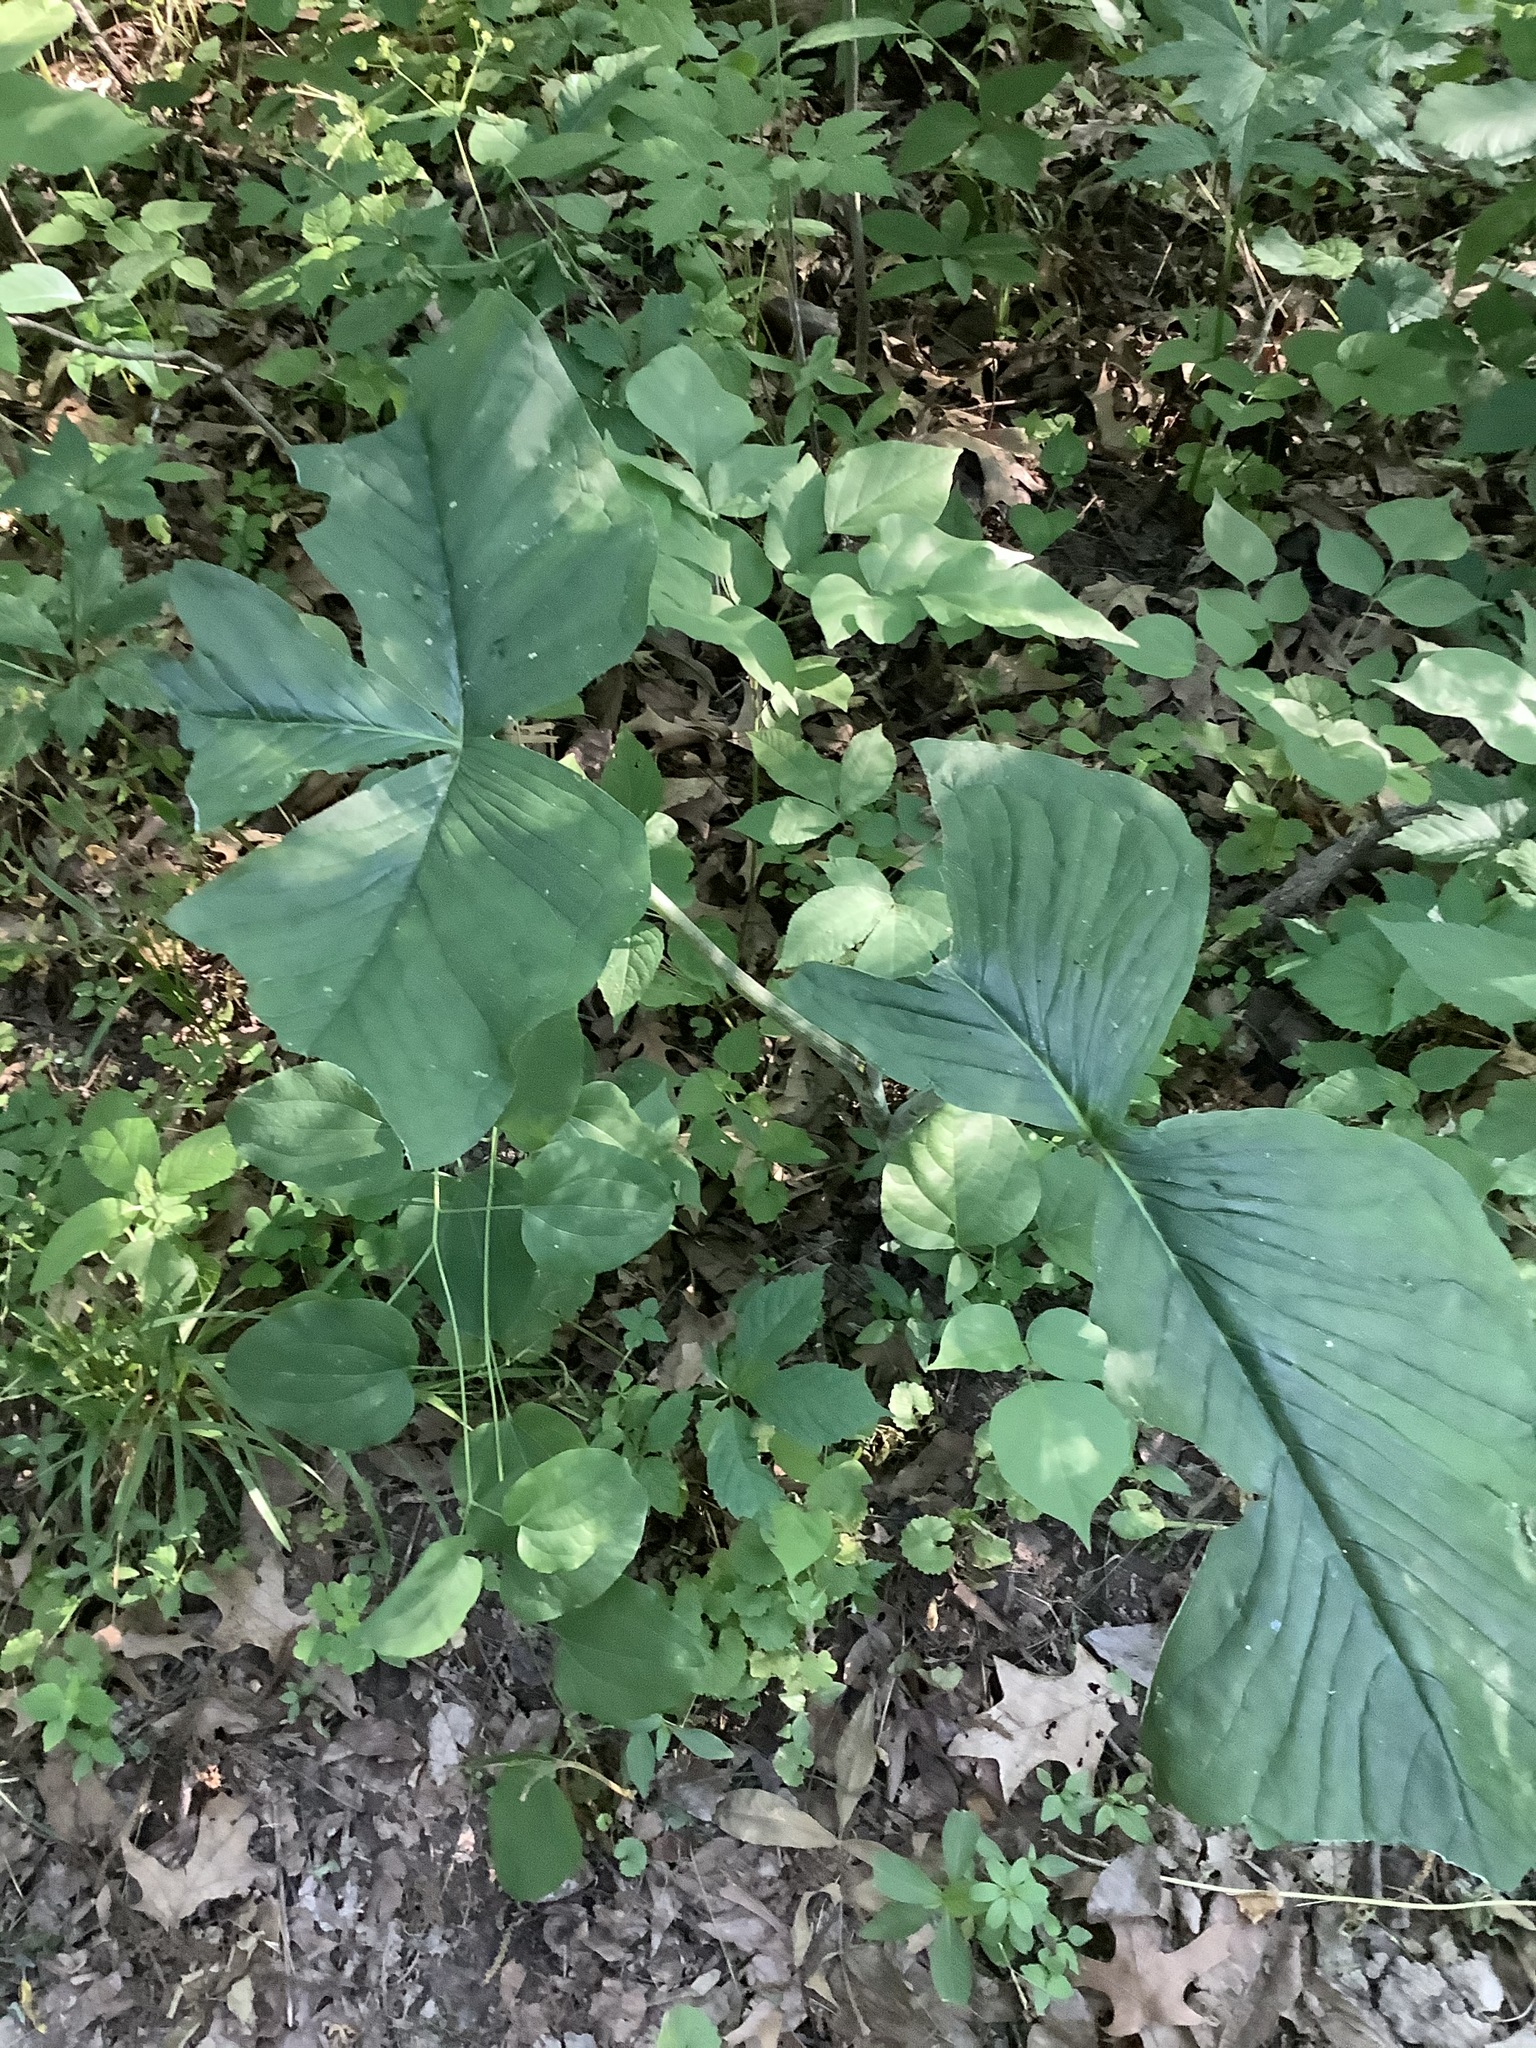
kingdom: Plantae
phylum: Tracheophyta
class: Liliopsida
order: Alismatales
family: Araceae
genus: Arisaema
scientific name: Arisaema triphyllum
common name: Jack-in-the-pulpit
